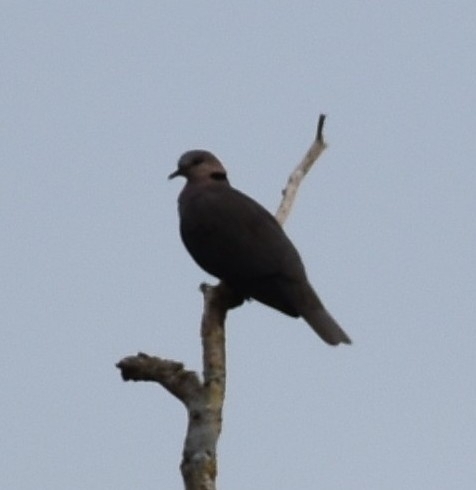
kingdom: Animalia
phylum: Chordata
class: Aves
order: Columbiformes
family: Columbidae
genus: Streptopelia
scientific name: Streptopelia semitorquata
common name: Red-eyed dove
